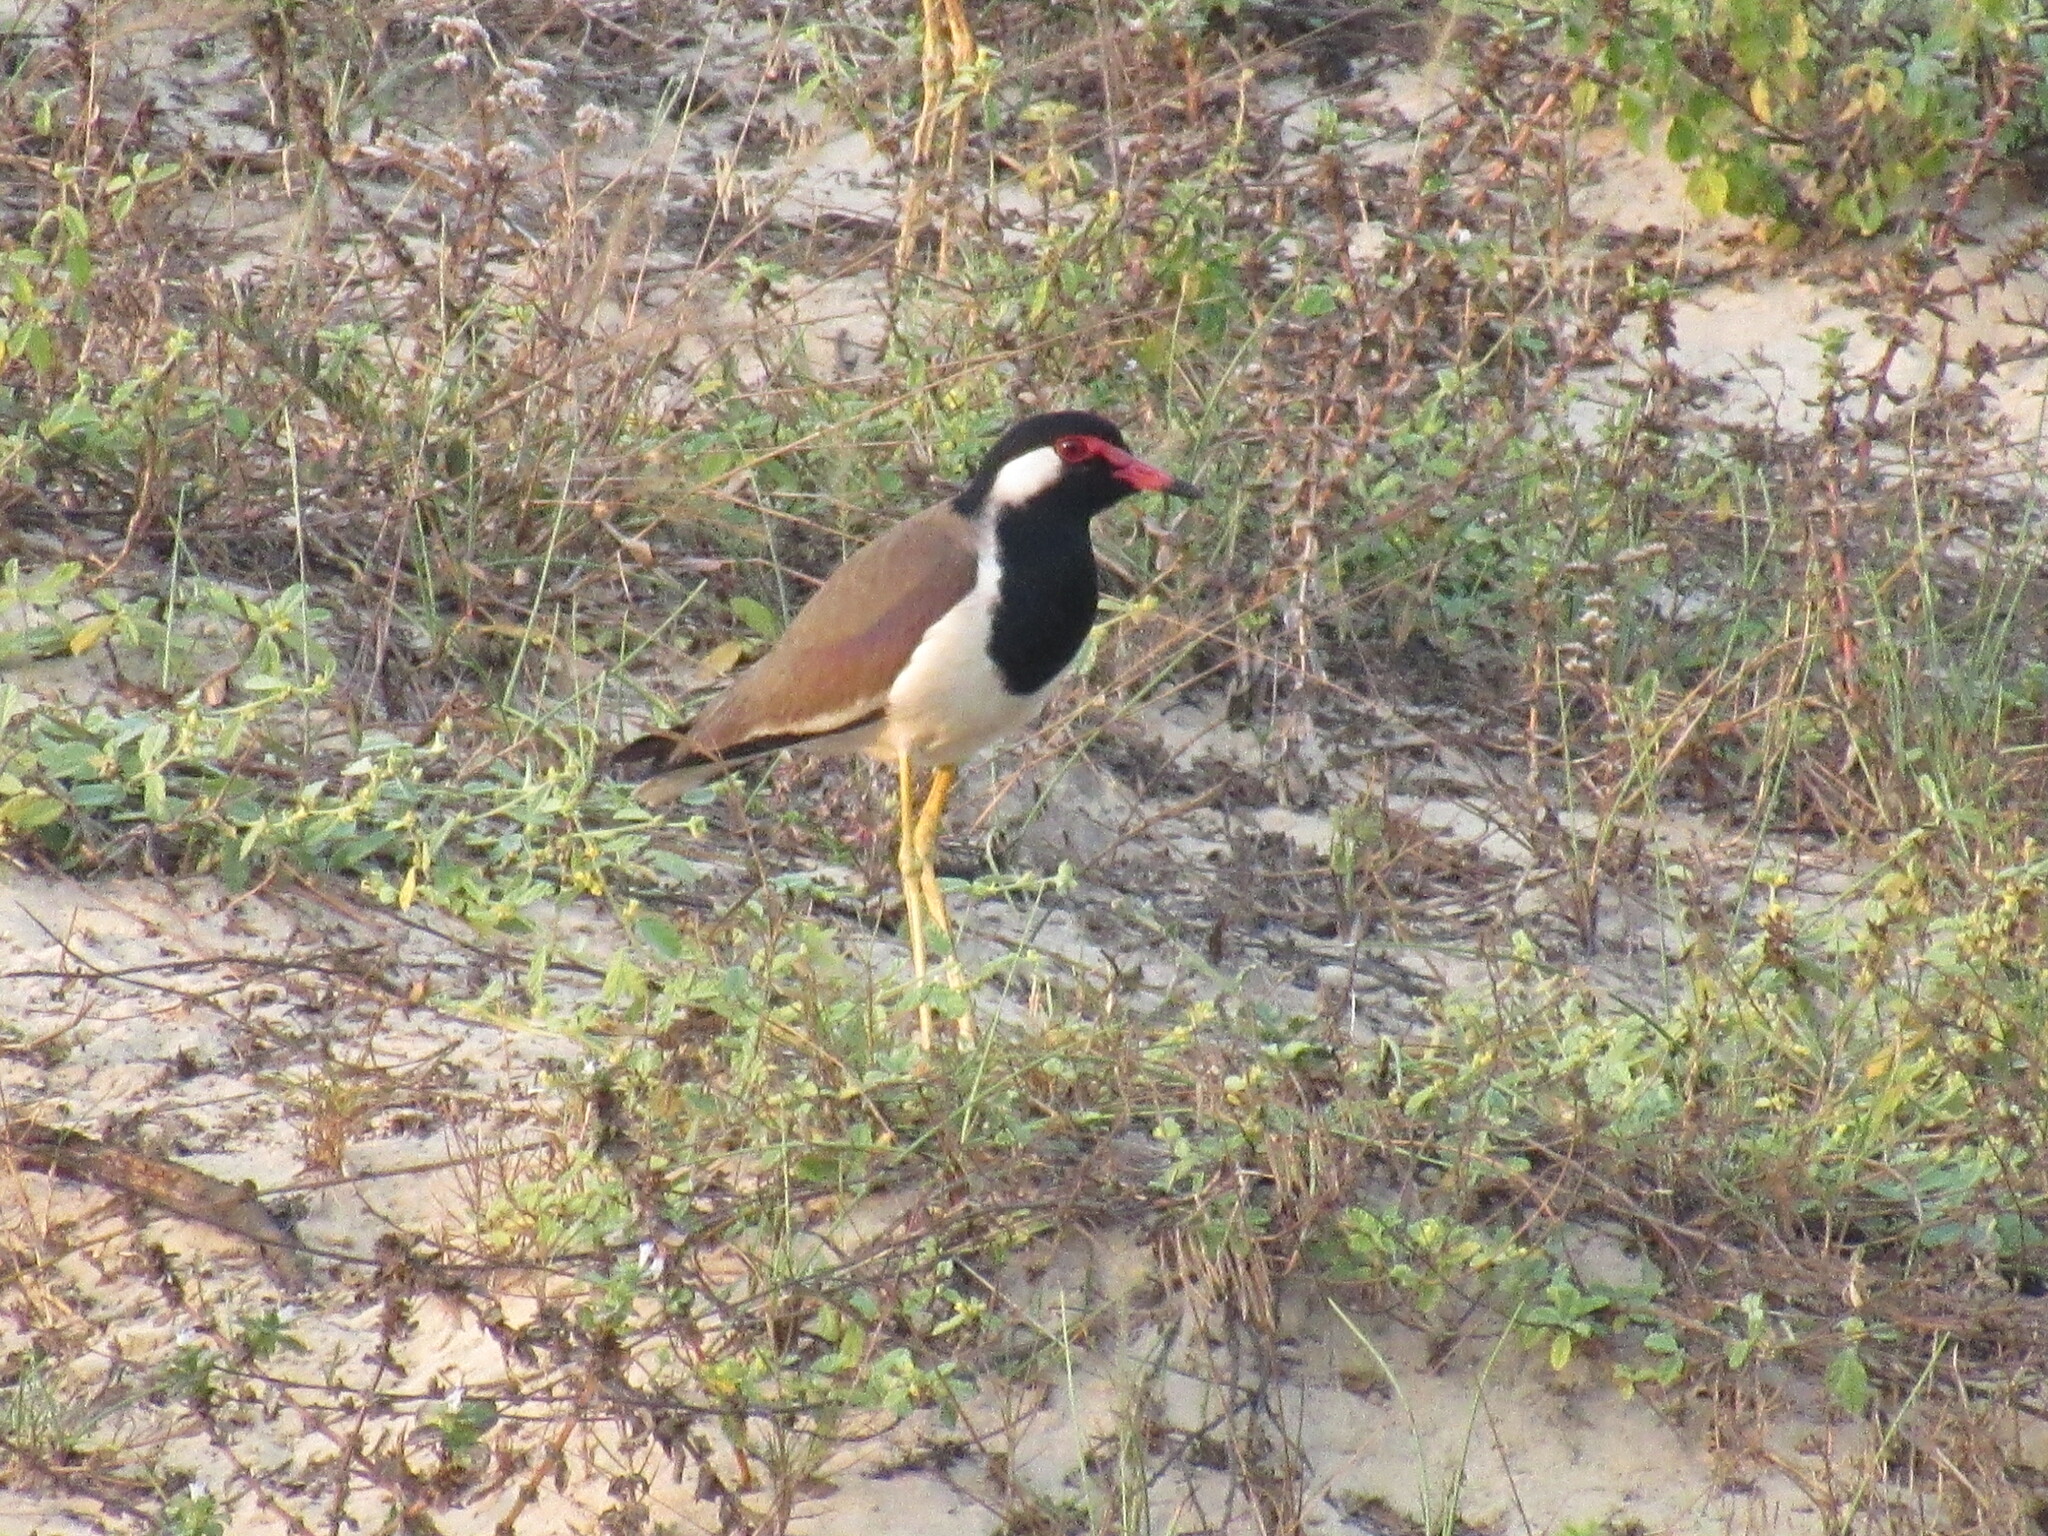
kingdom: Animalia
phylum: Chordata
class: Aves
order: Charadriiformes
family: Charadriidae
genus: Vanellus
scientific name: Vanellus indicus
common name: Red-wattled lapwing
